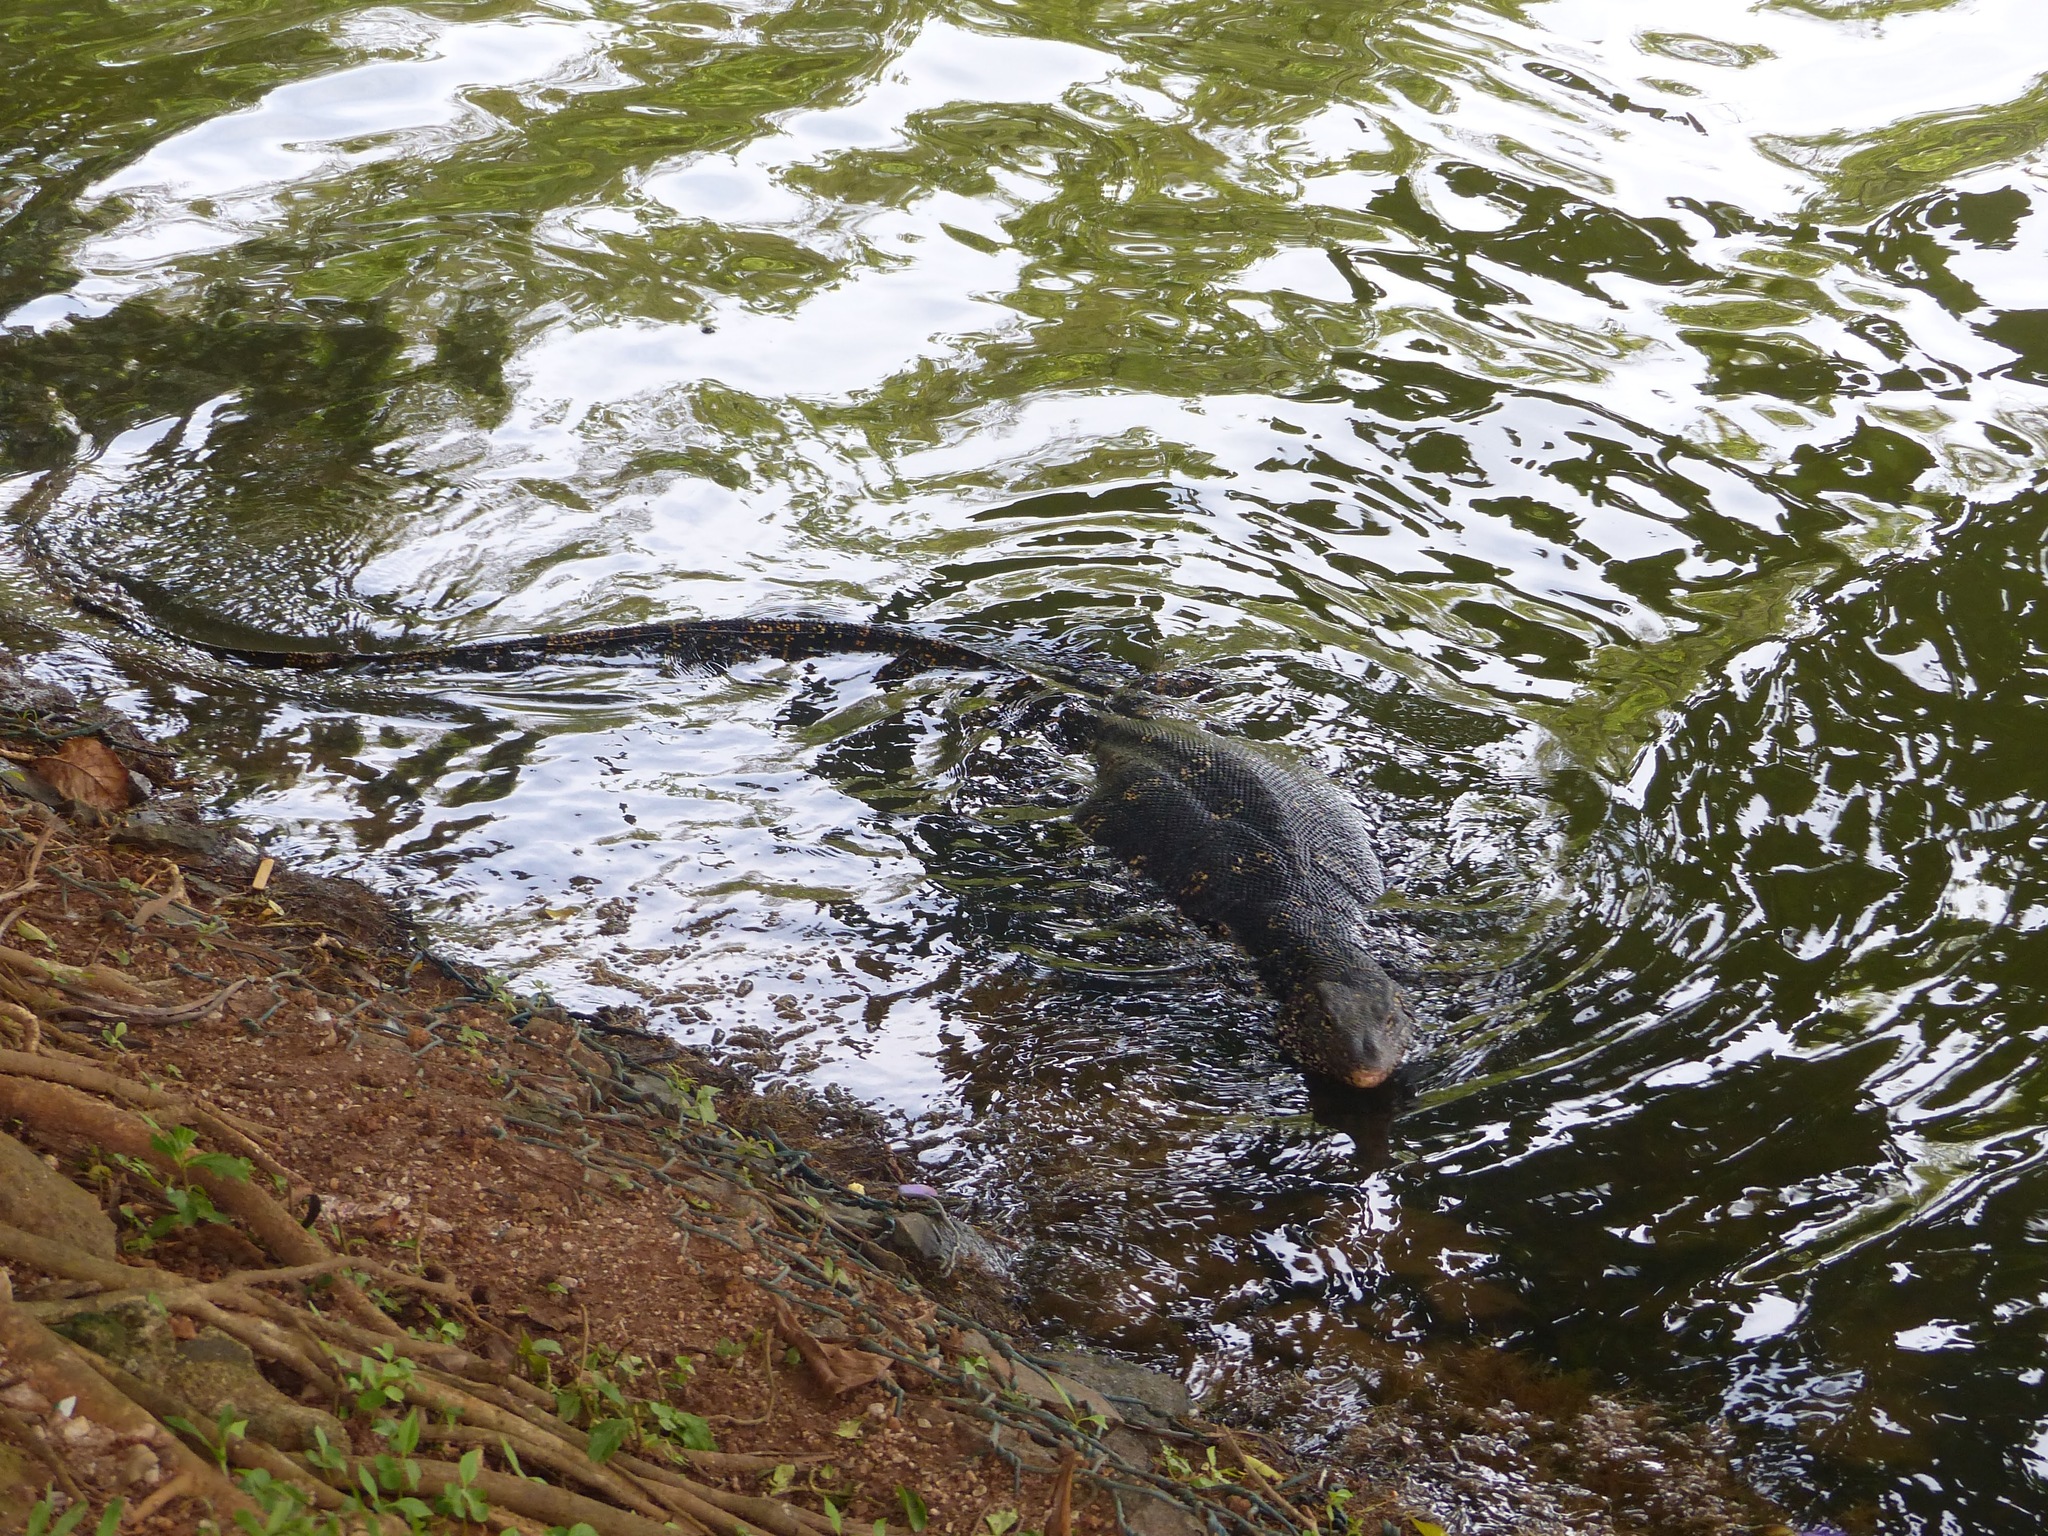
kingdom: Animalia
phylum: Chordata
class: Squamata
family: Varanidae
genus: Varanus
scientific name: Varanus salvator
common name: Common water monitor
